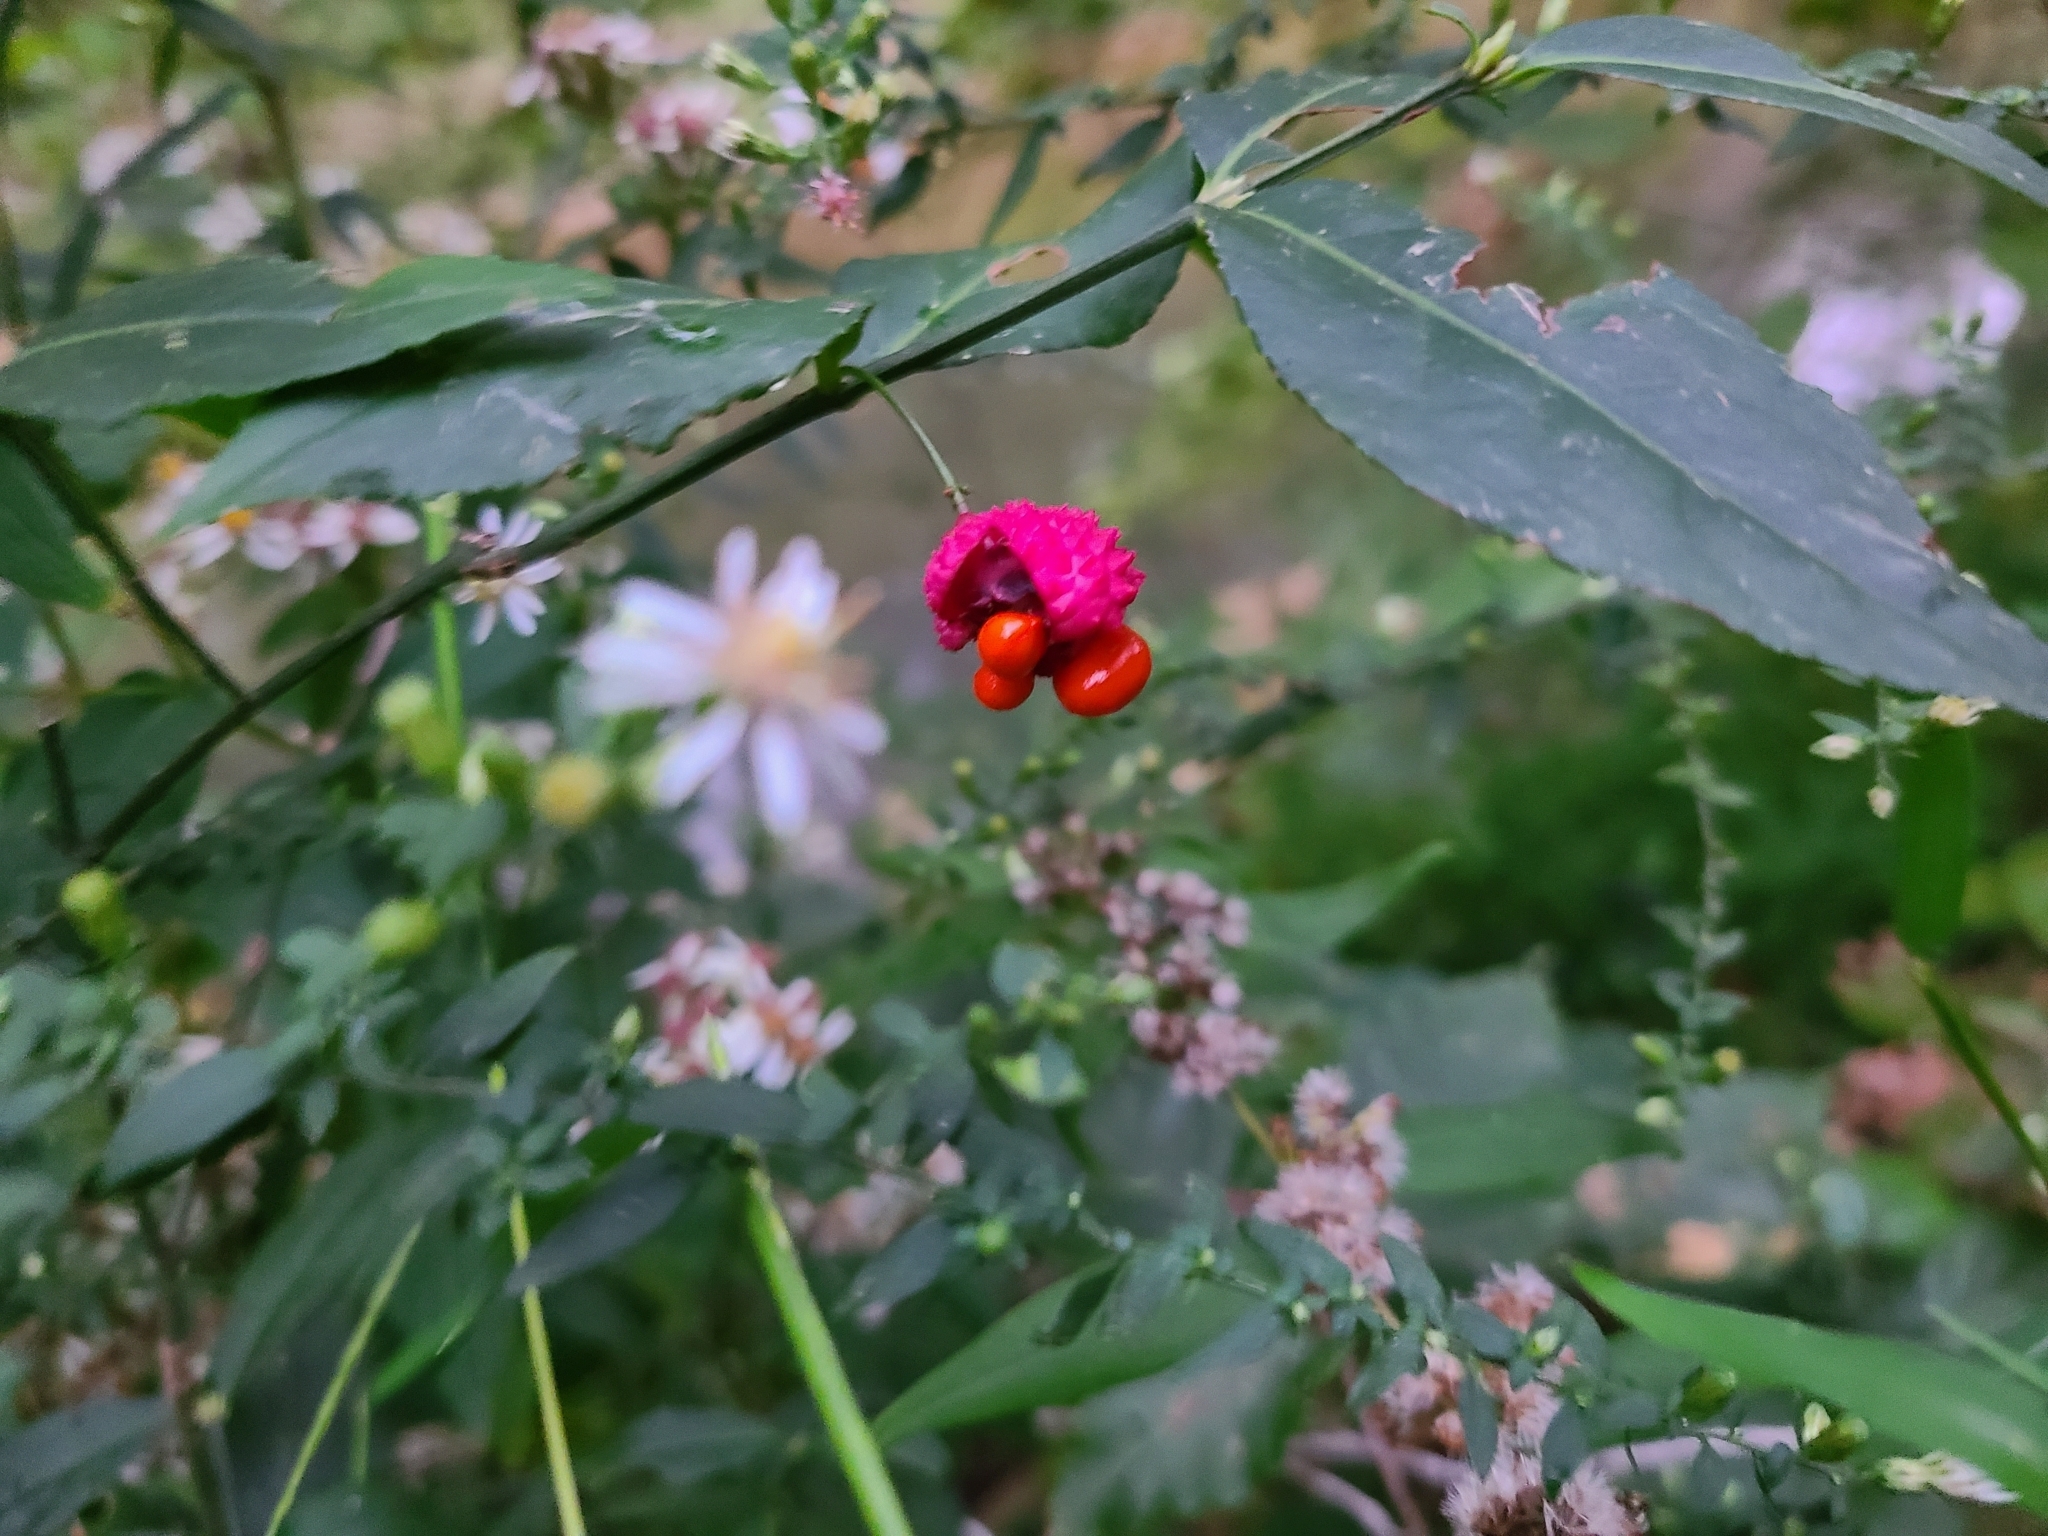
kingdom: Plantae
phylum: Tracheophyta
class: Magnoliopsida
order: Celastrales
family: Celastraceae
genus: Euonymus
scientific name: Euonymus americanus
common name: Bursting-heart
